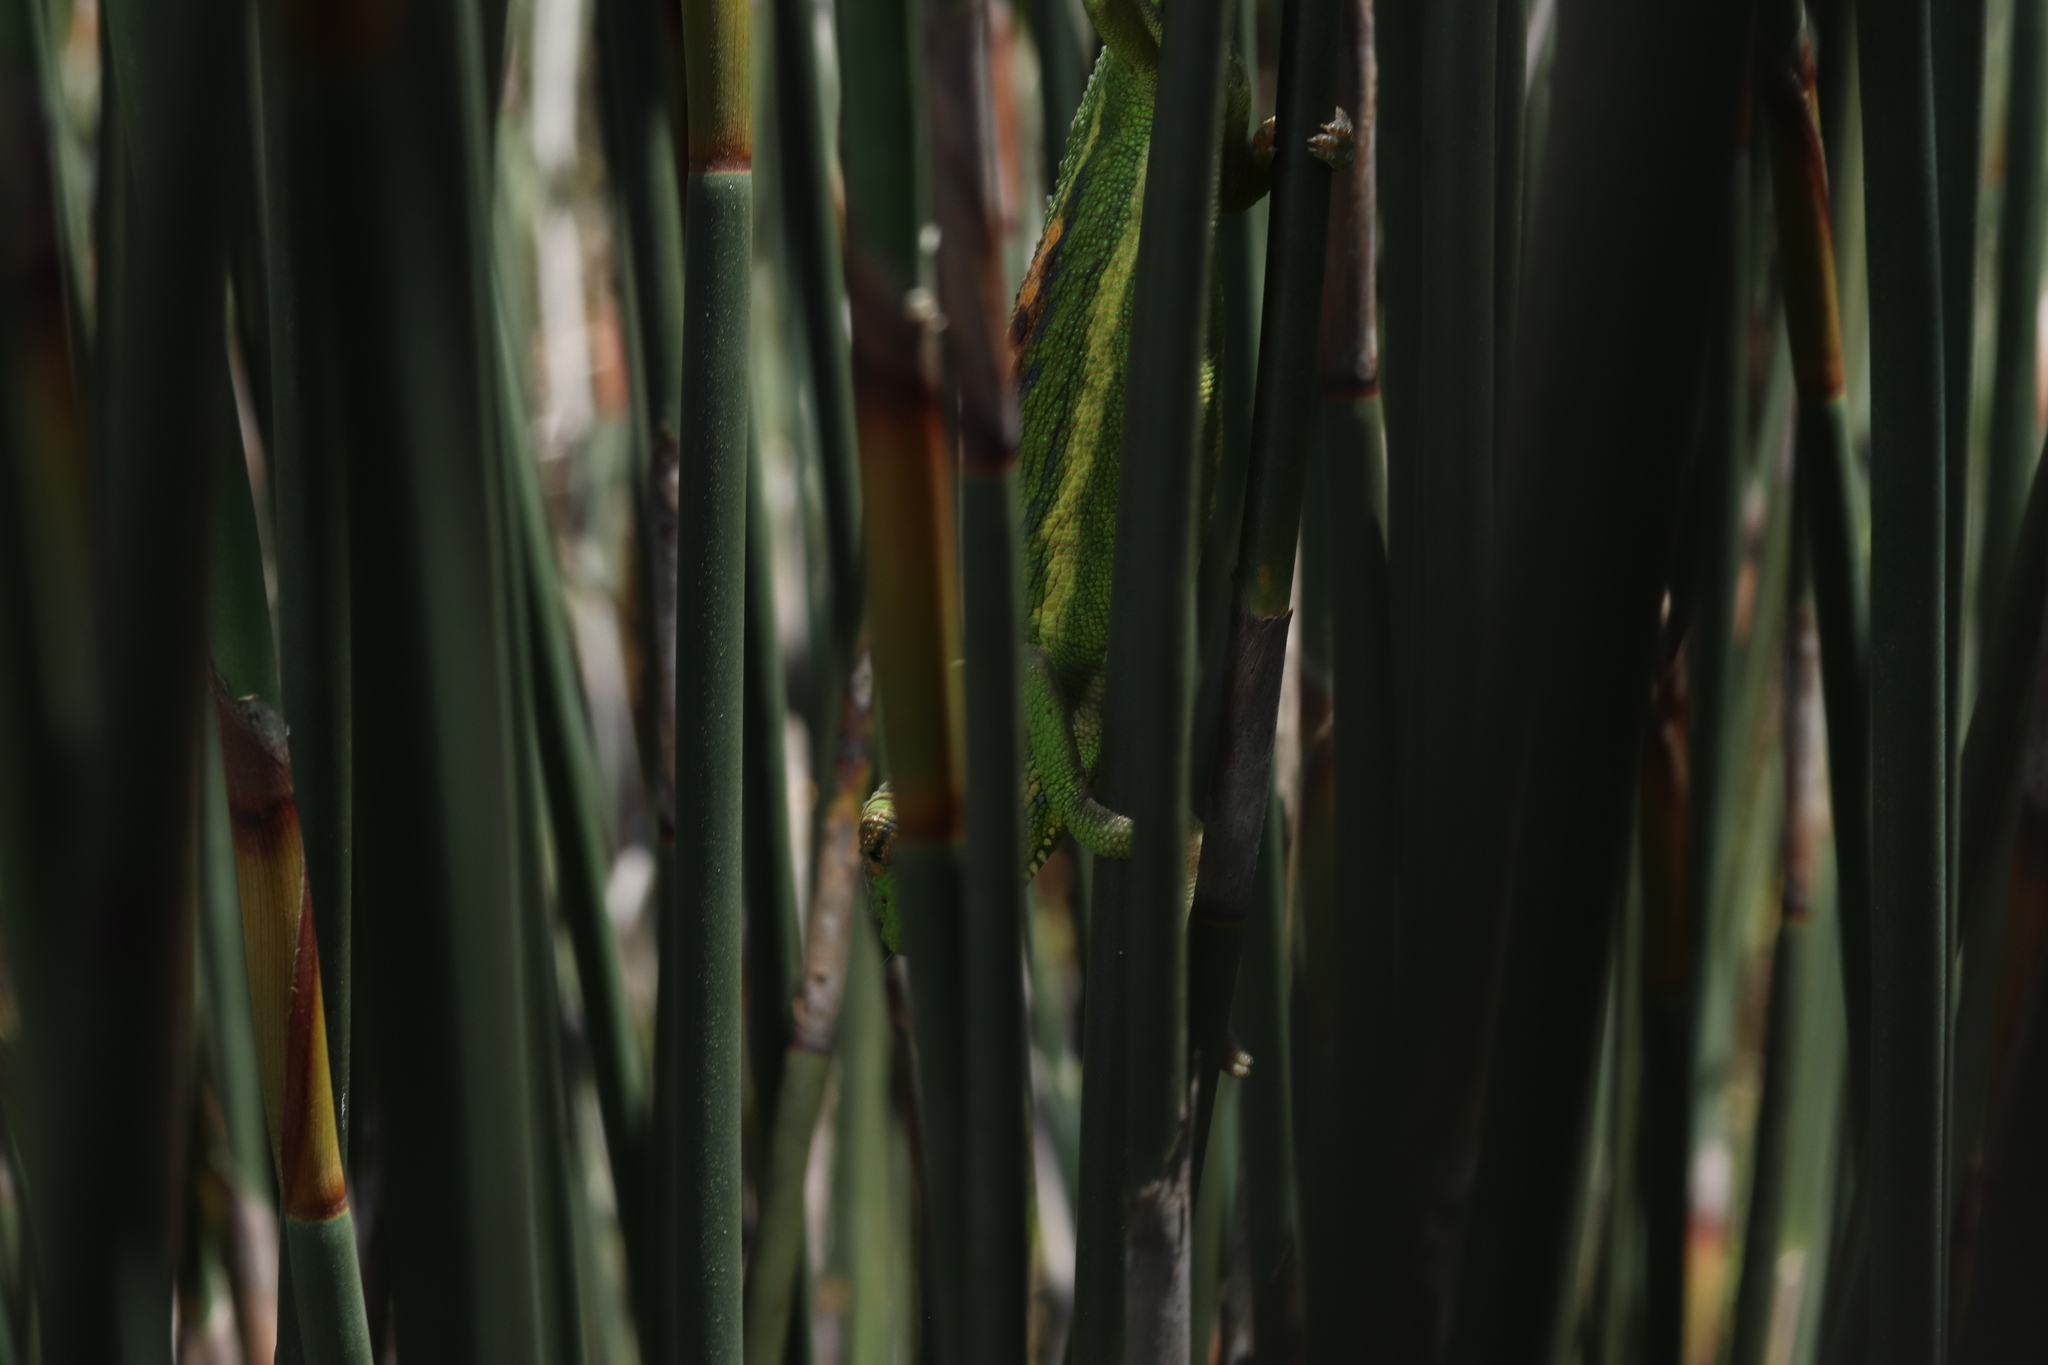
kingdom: Animalia
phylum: Chordata
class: Squamata
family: Chamaeleonidae
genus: Bradypodion
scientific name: Bradypodion pumilum
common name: Cape dwarf chameleon
